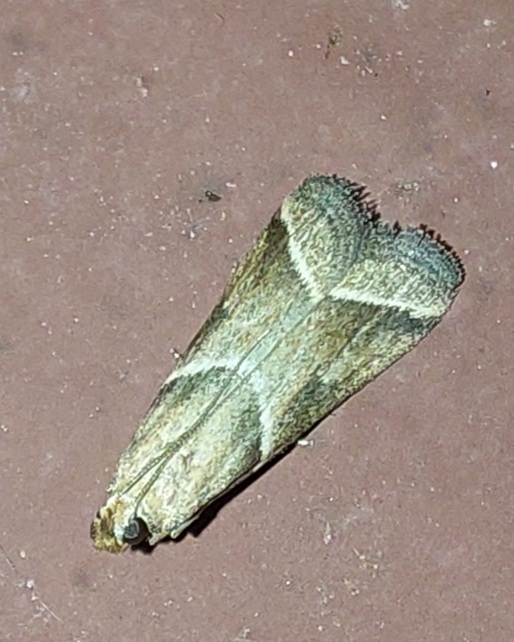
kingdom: Animalia
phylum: Arthropoda
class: Insecta
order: Lepidoptera
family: Pyralidae
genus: Nyctegretis
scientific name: Nyctegretis lineana
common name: Agate knot-horn
